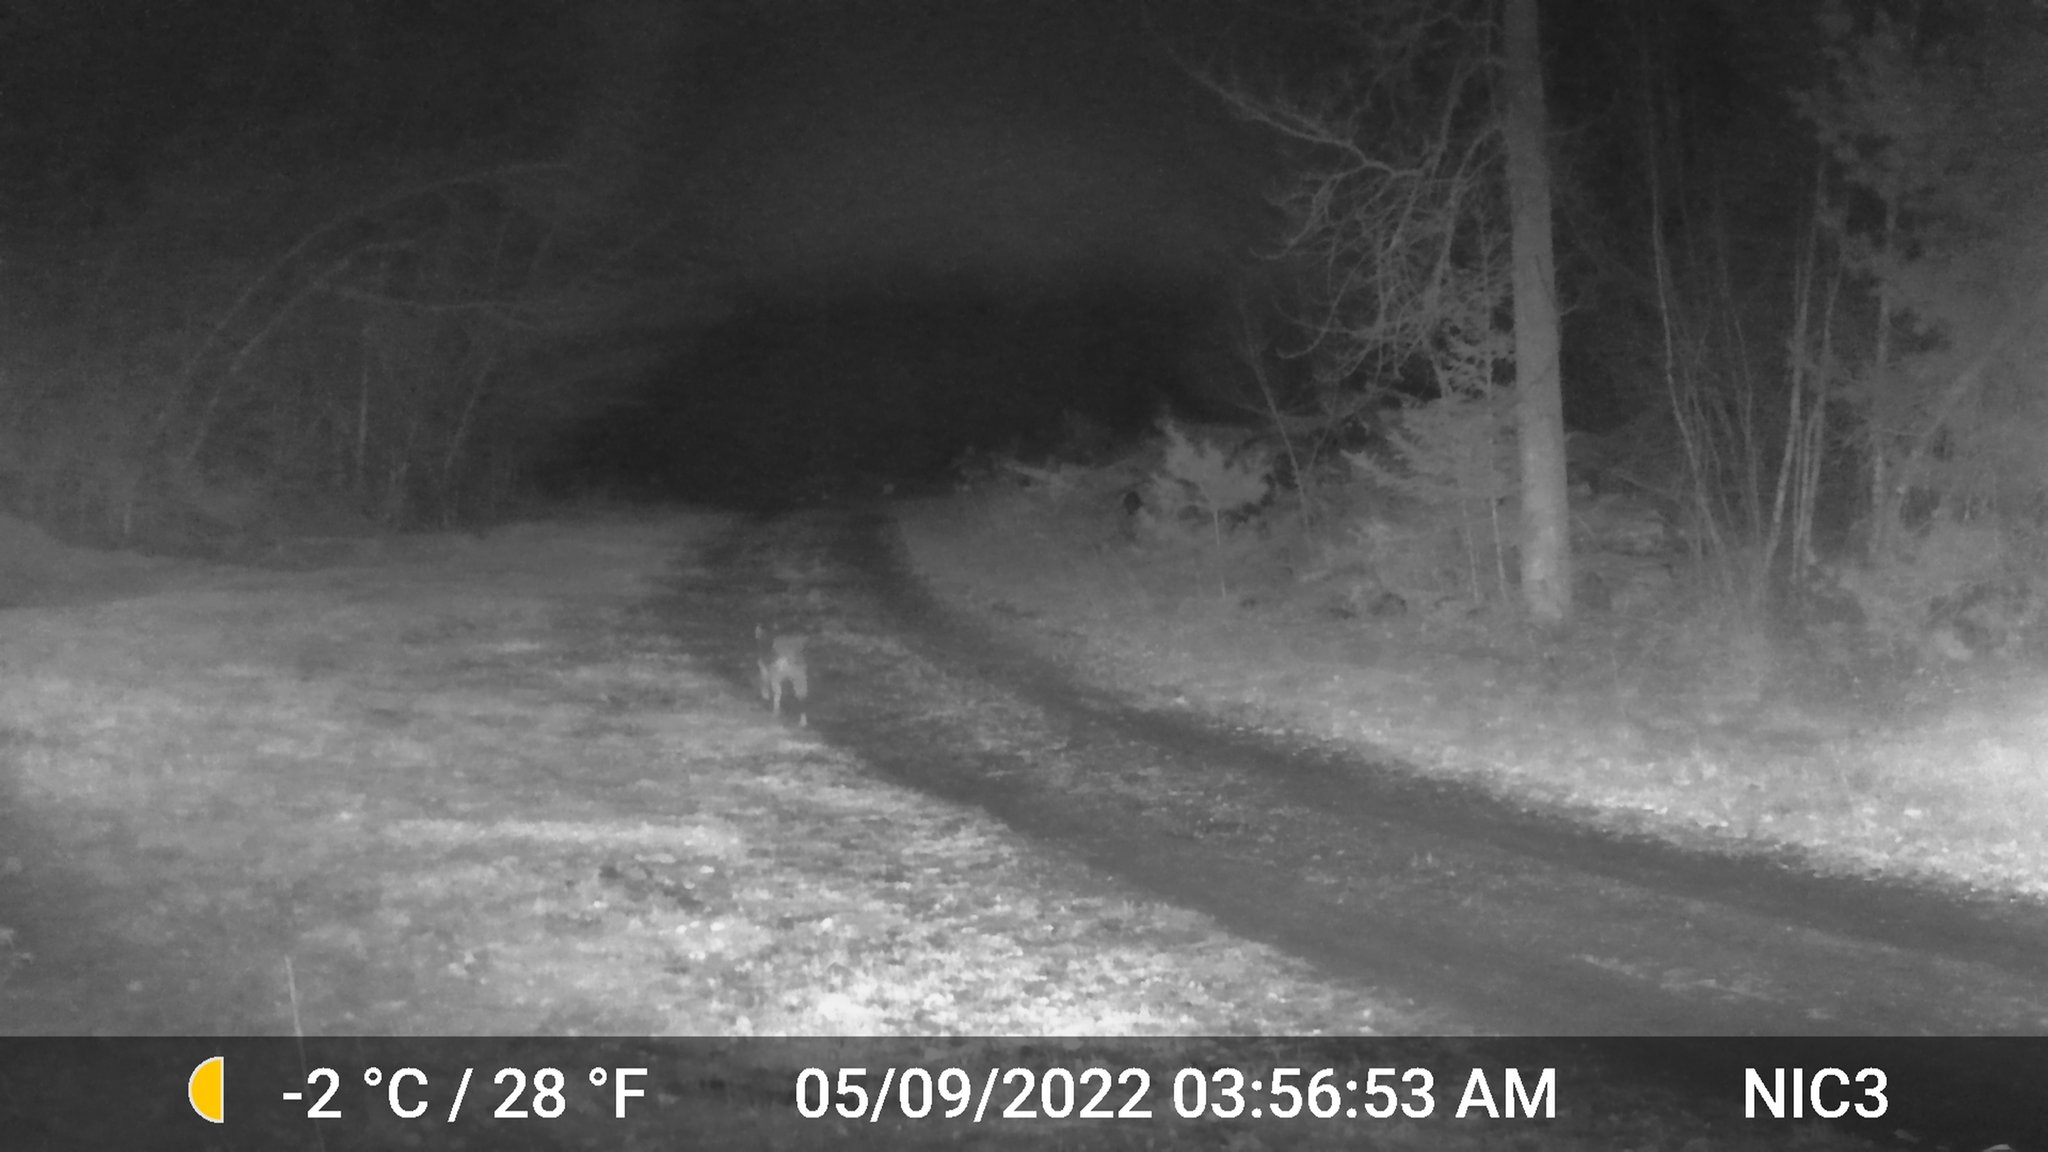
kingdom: Animalia
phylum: Chordata
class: Mammalia
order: Carnivora
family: Canidae
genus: Canis
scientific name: Canis latrans
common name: Coyote
